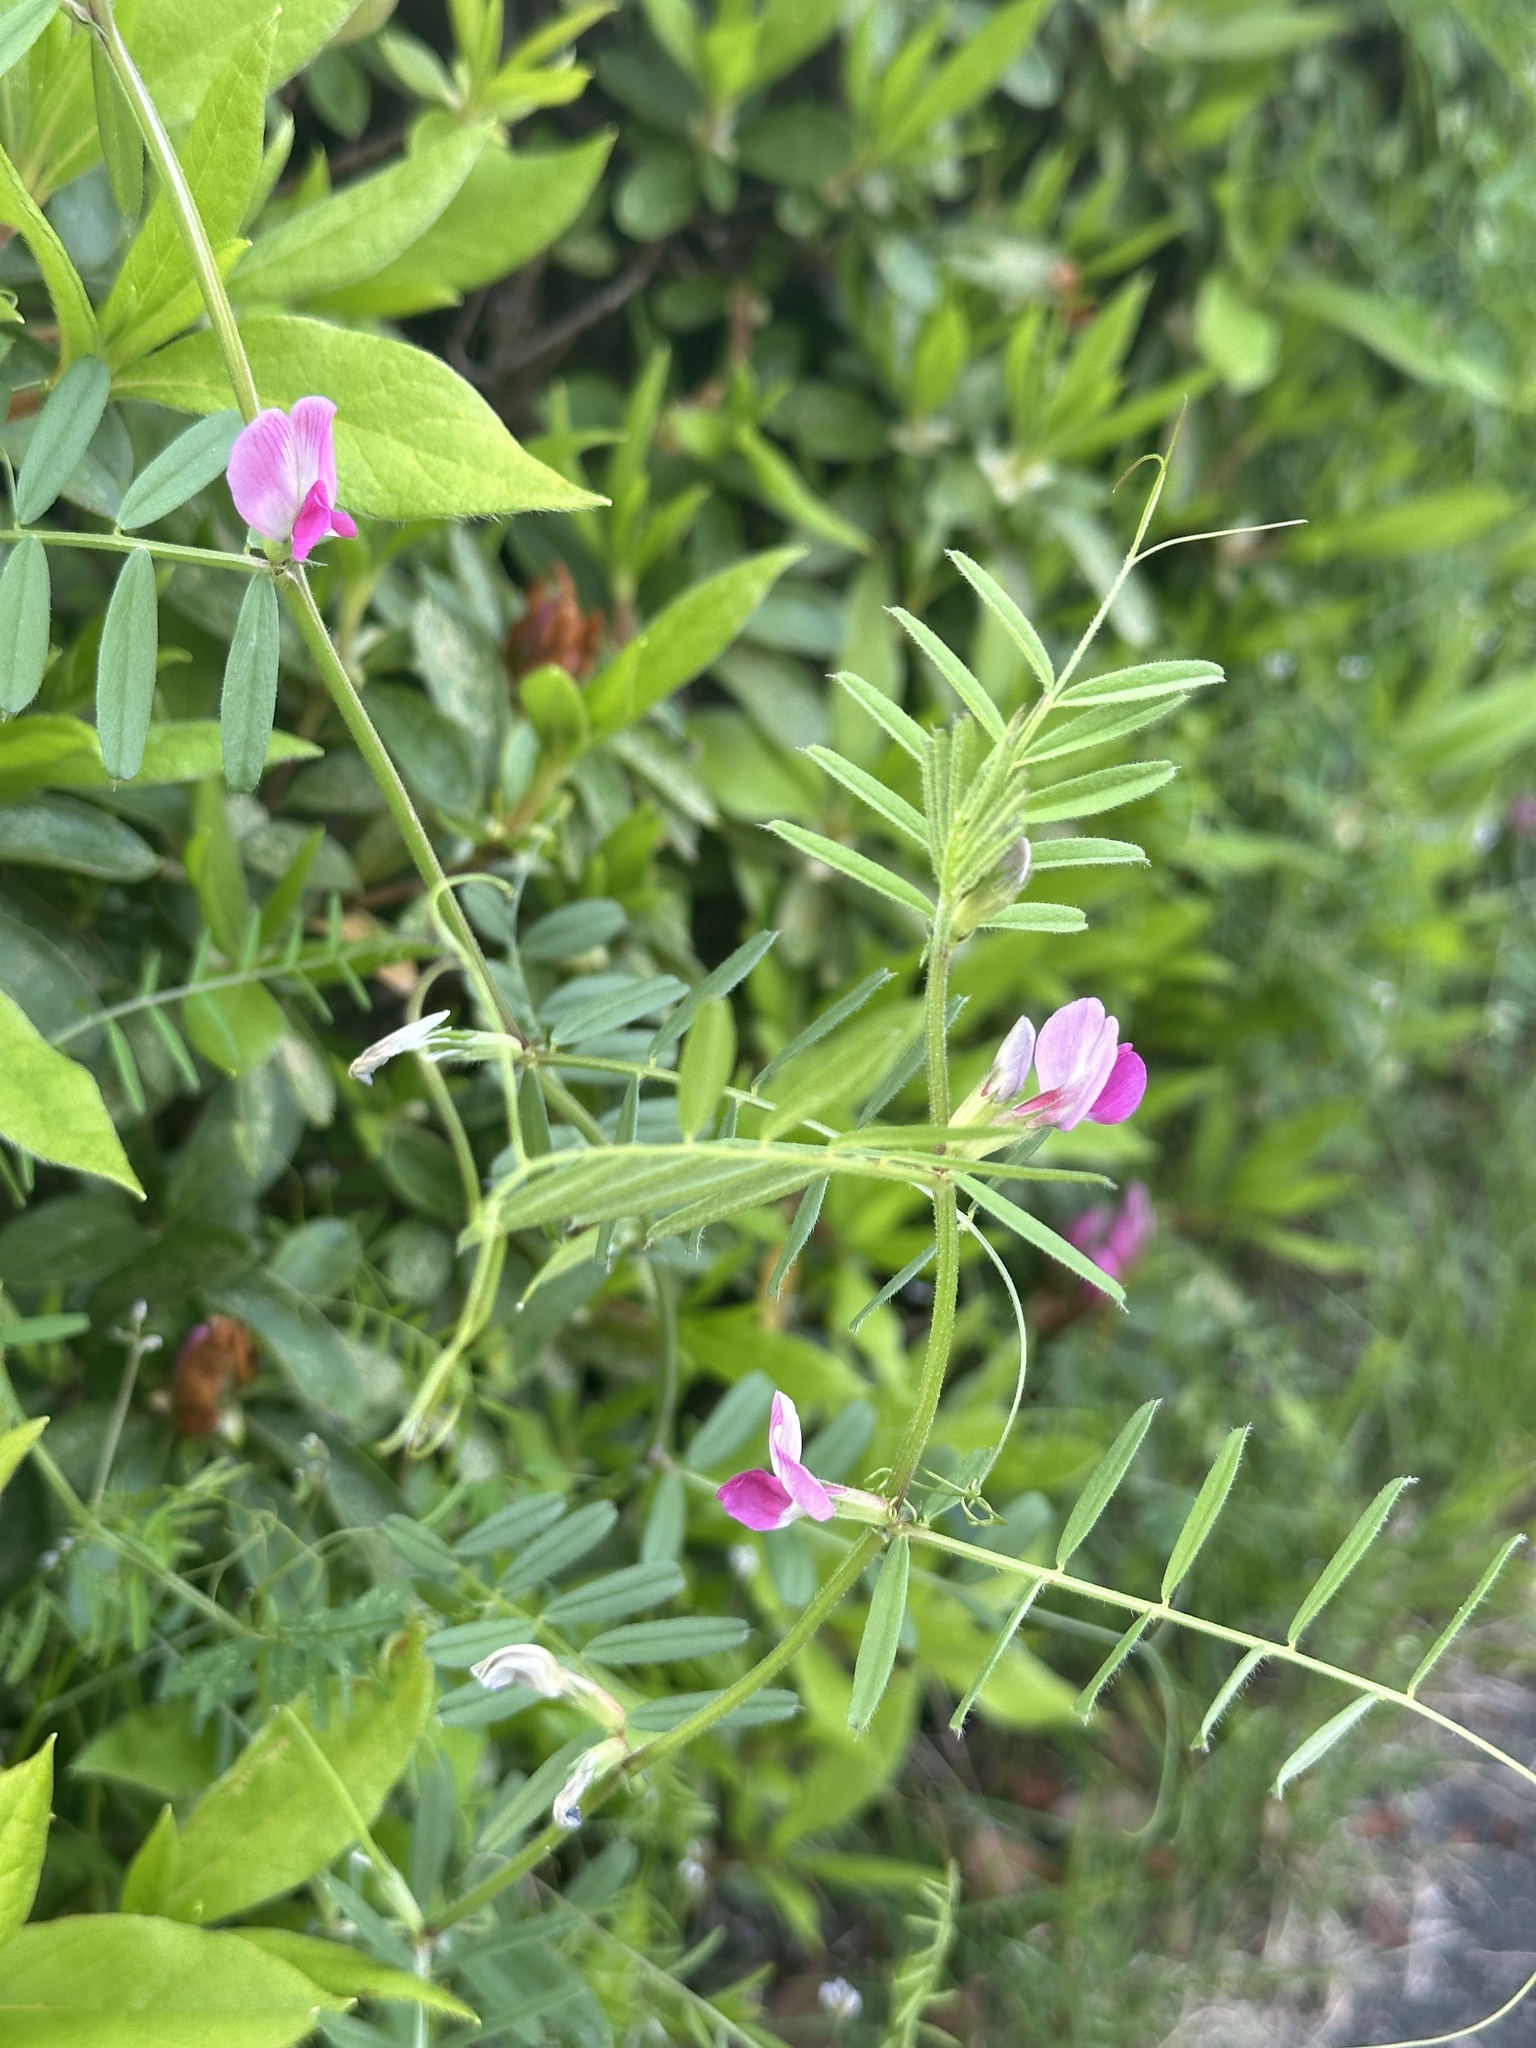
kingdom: Plantae
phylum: Tracheophyta
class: Magnoliopsida
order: Fabales
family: Fabaceae
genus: Vicia
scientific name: Vicia sativa
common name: Garden vetch
